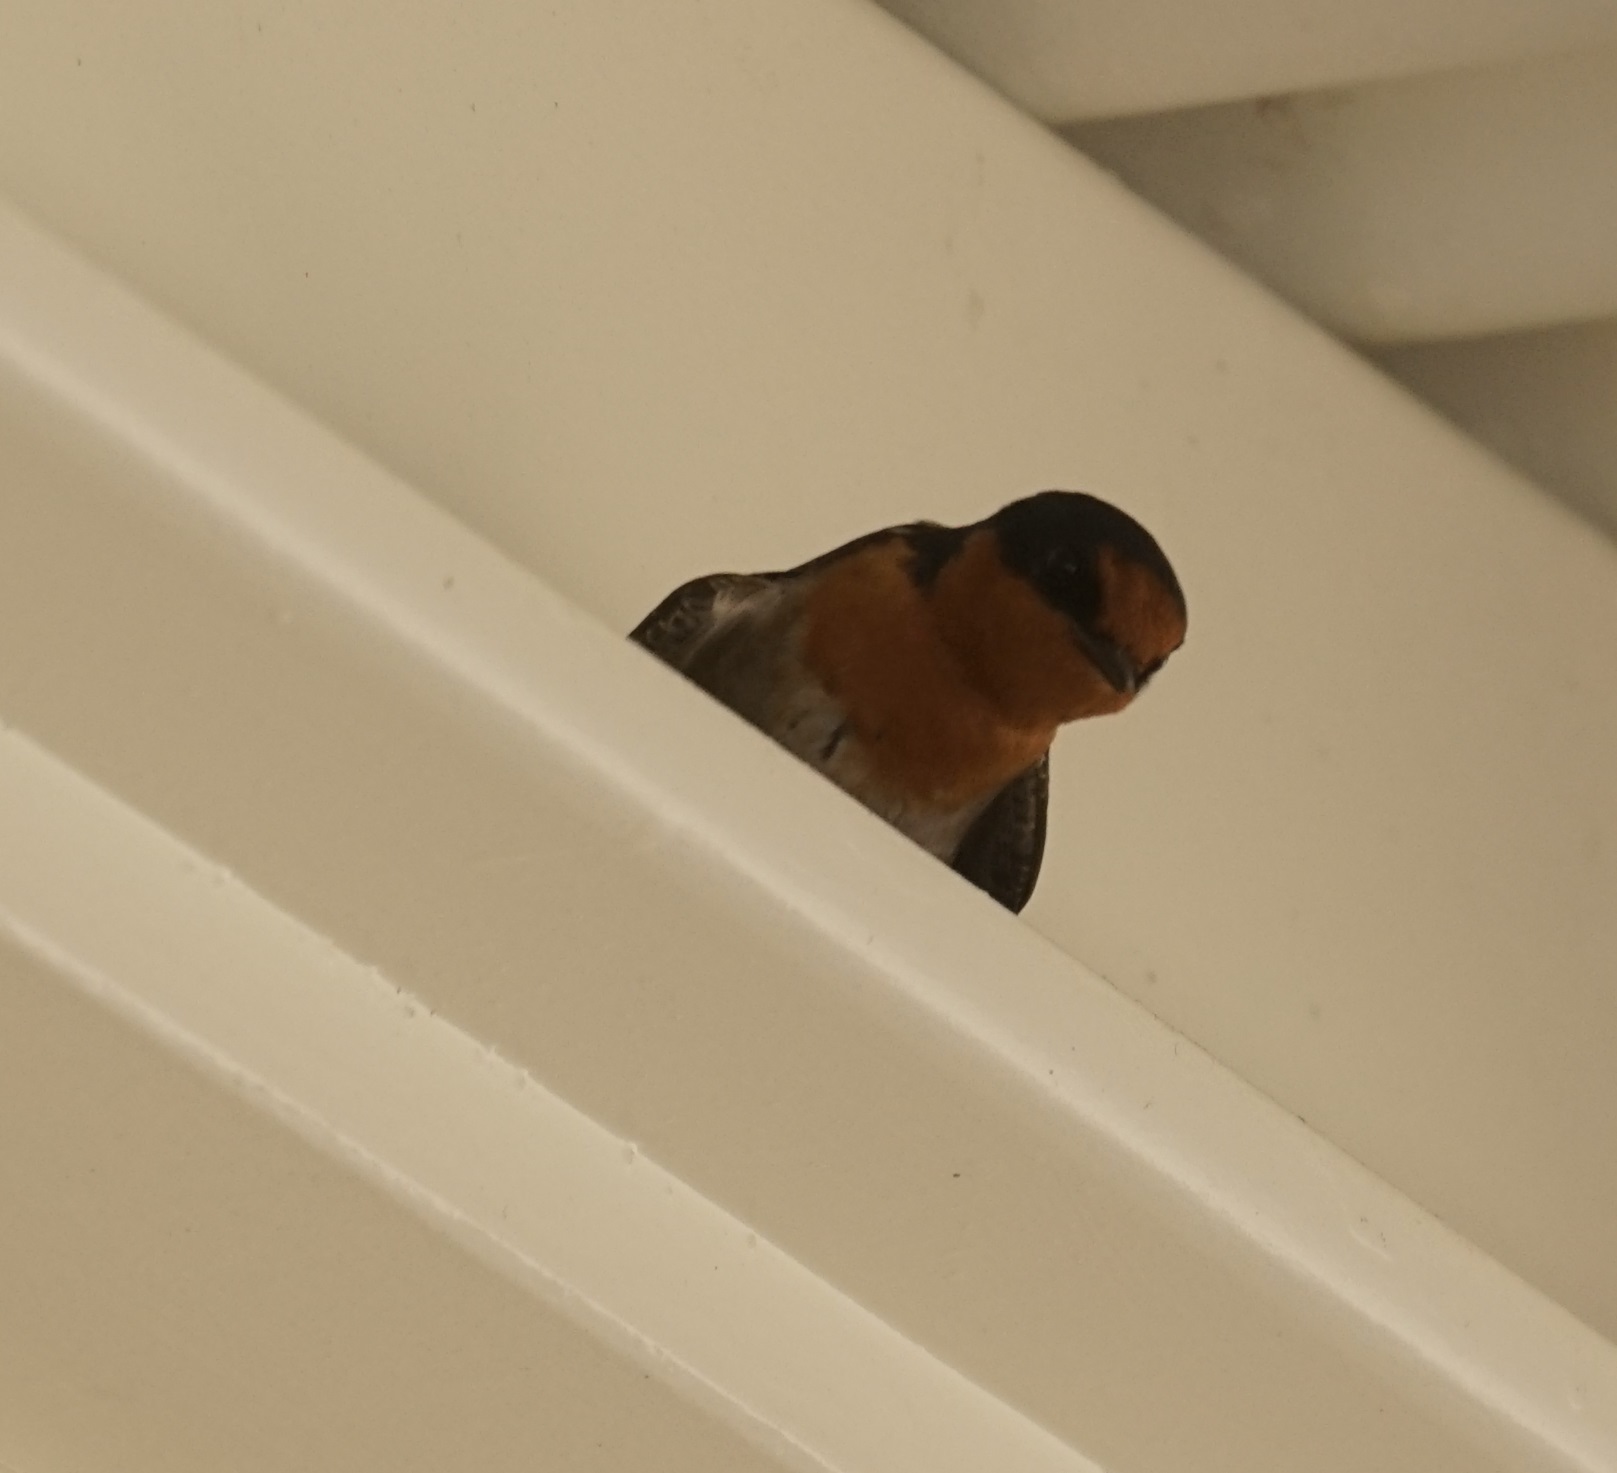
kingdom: Animalia
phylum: Chordata
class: Aves
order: Passeriformes
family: Hirundinidae
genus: Hirundo
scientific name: Hirundo neoxena
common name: Welcome swallow
